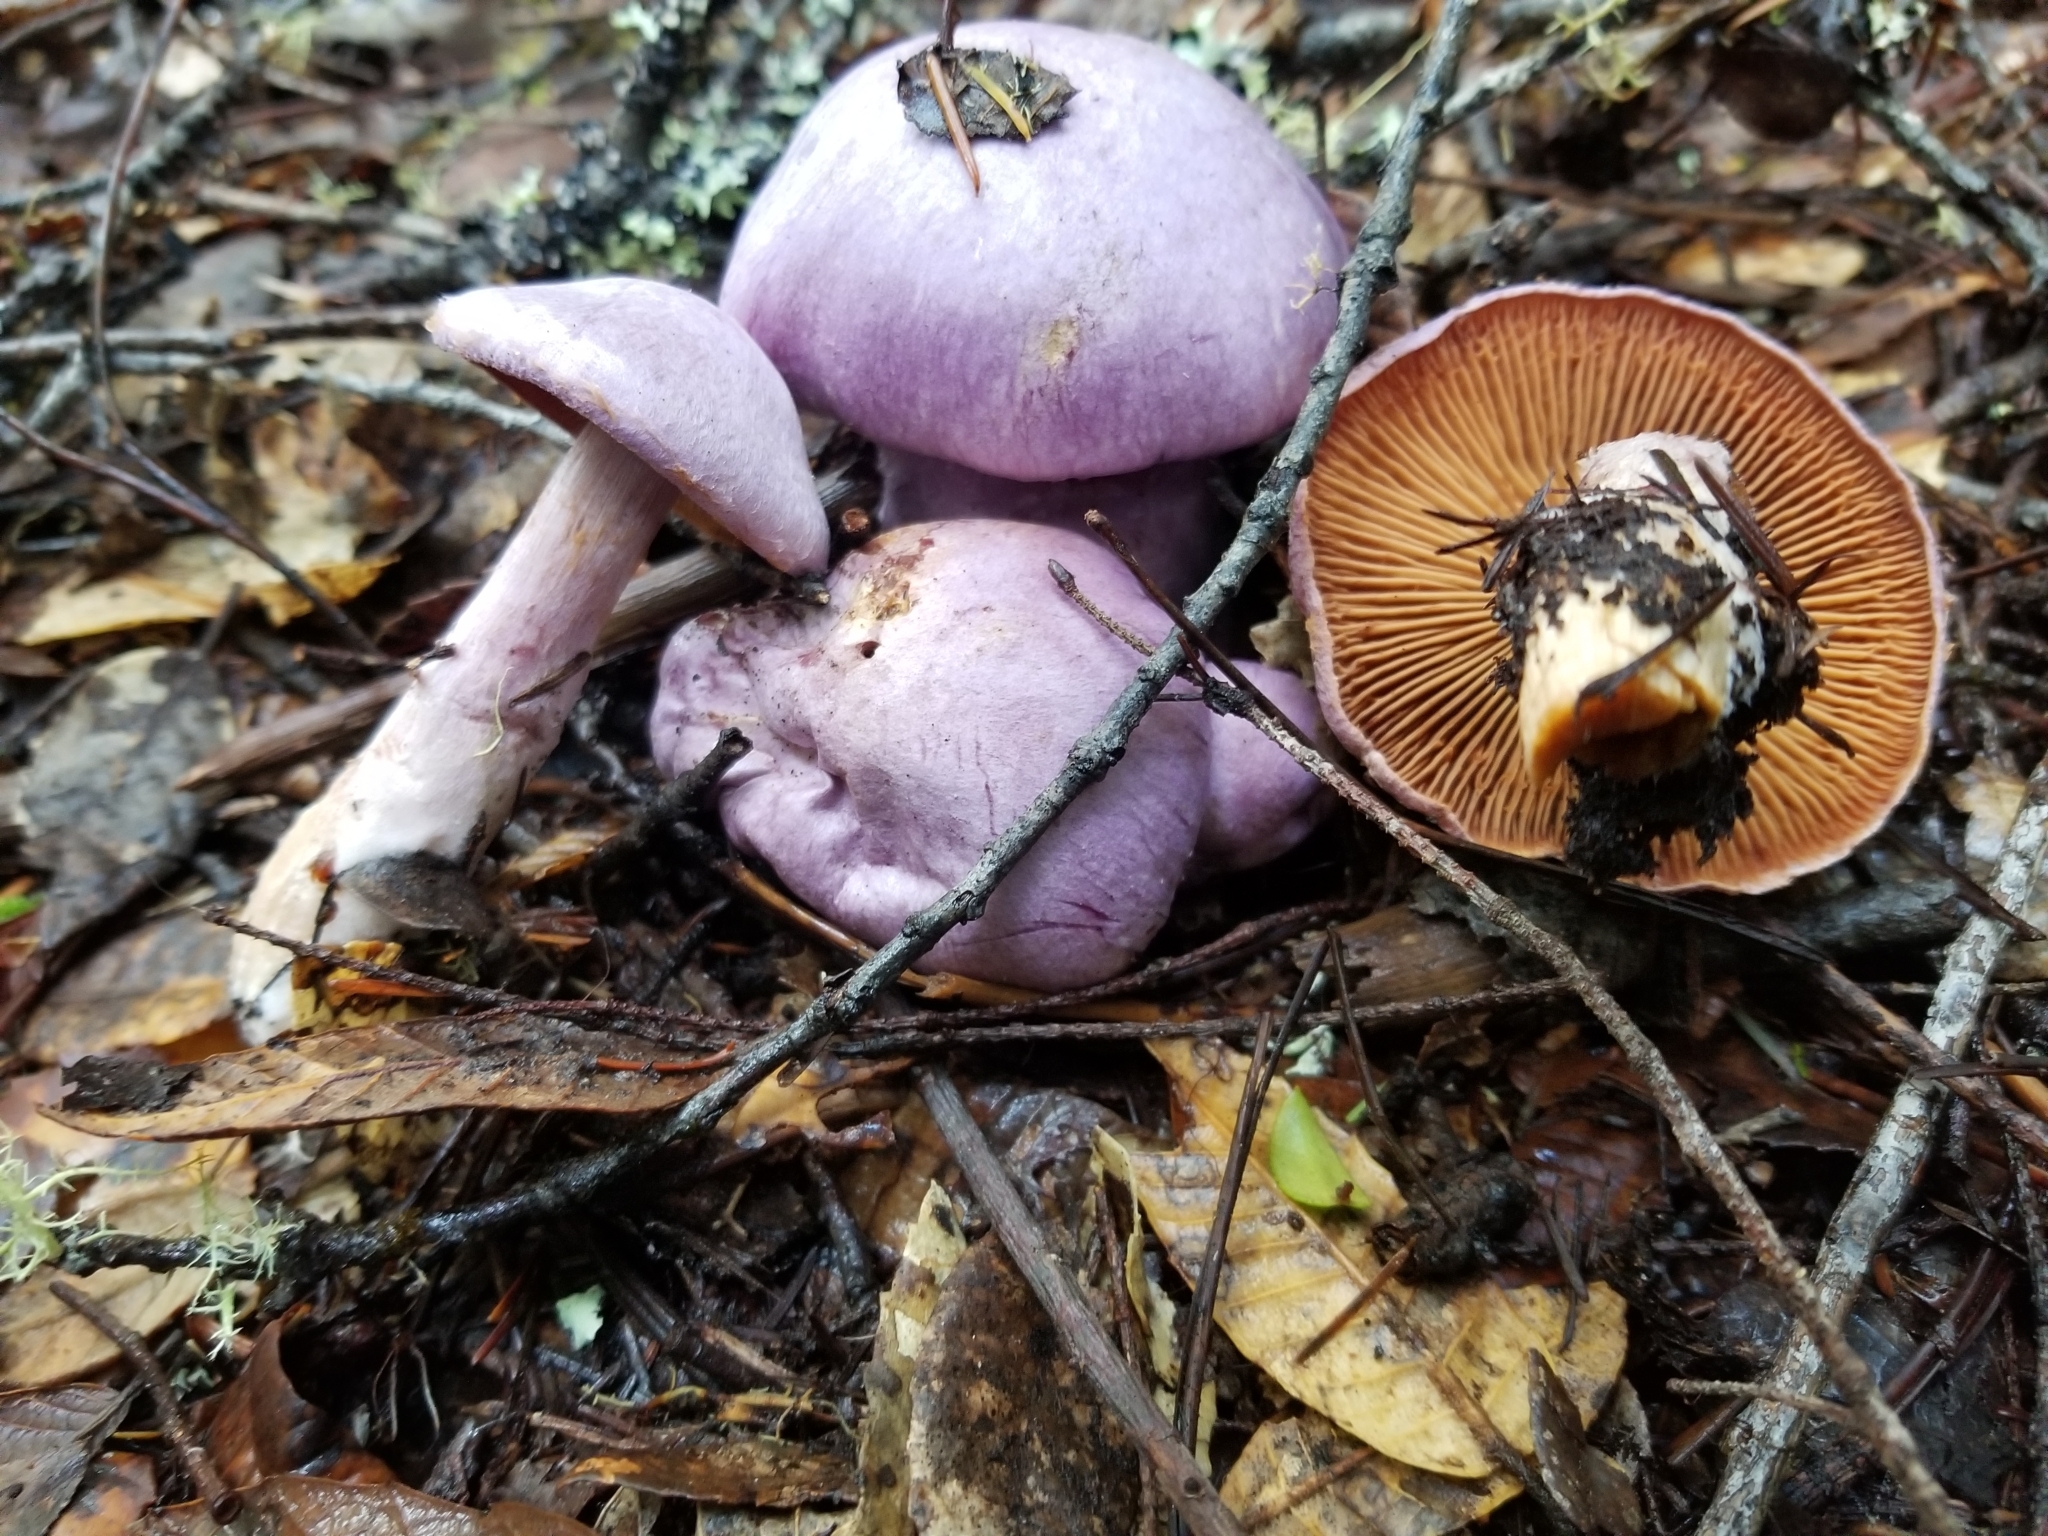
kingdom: Fungi
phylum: Basidiomycota
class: Agaricomycetes
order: Agaricales
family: Cortinariaceae
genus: Cortinarius
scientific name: Cortinarius traganus
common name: Gassy webcap
